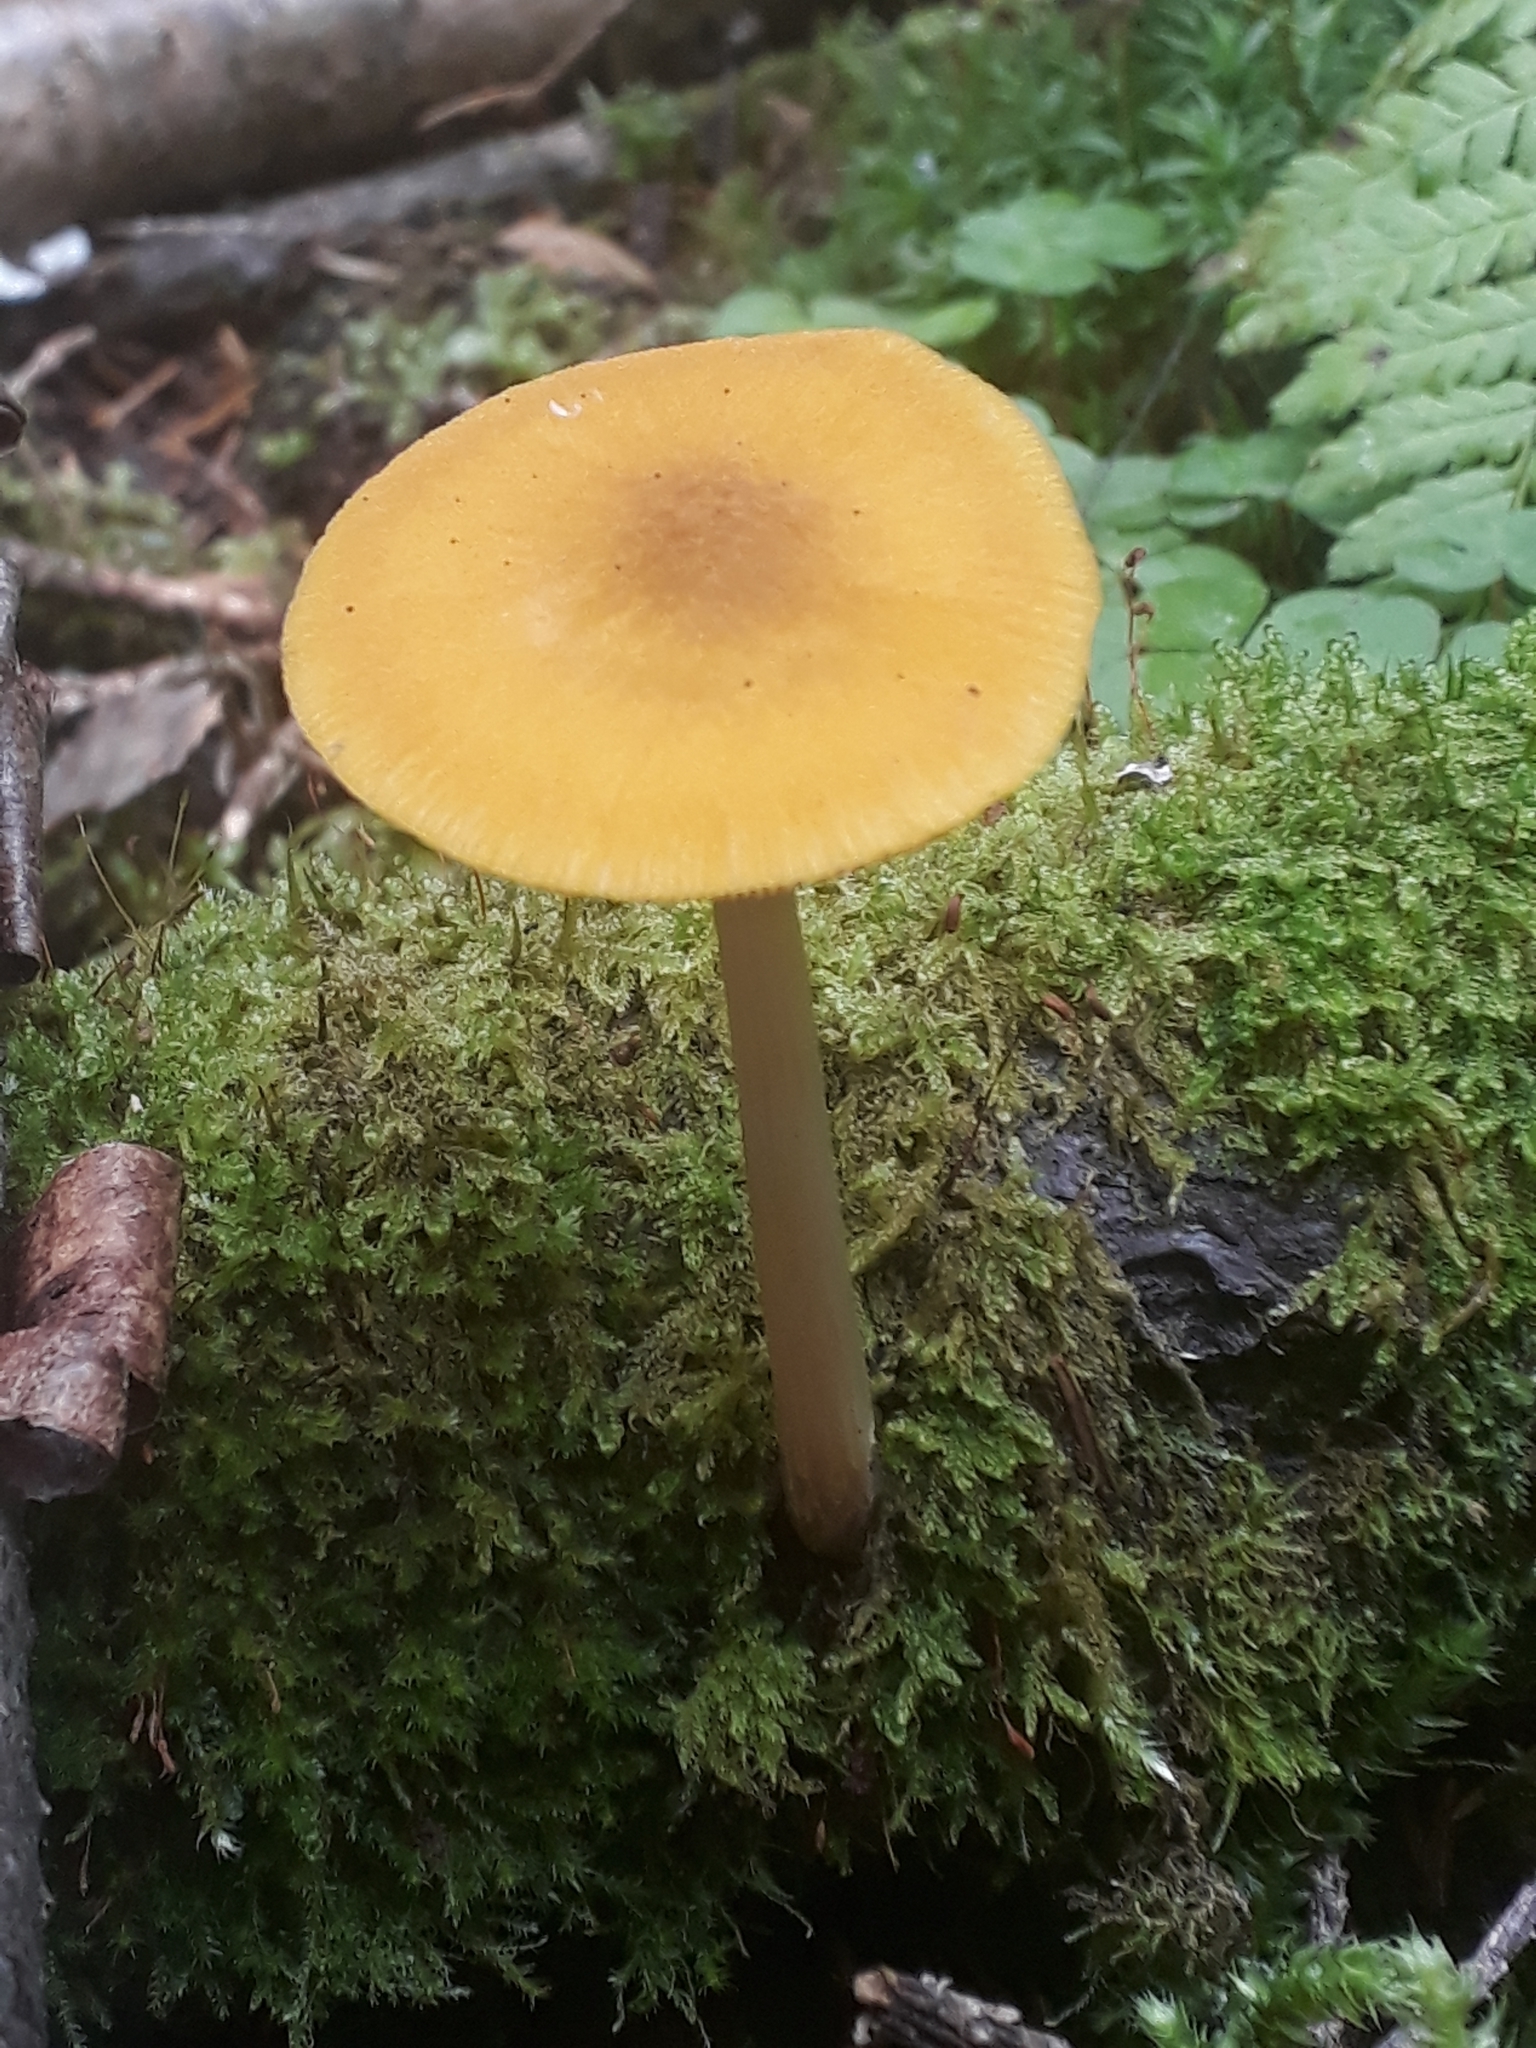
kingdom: Fungi
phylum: Basidiomycota
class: Agaricomycetes
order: Agaricales
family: Pluteaceae
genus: Pluteus
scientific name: Pluteus leoninus
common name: Lion shield
